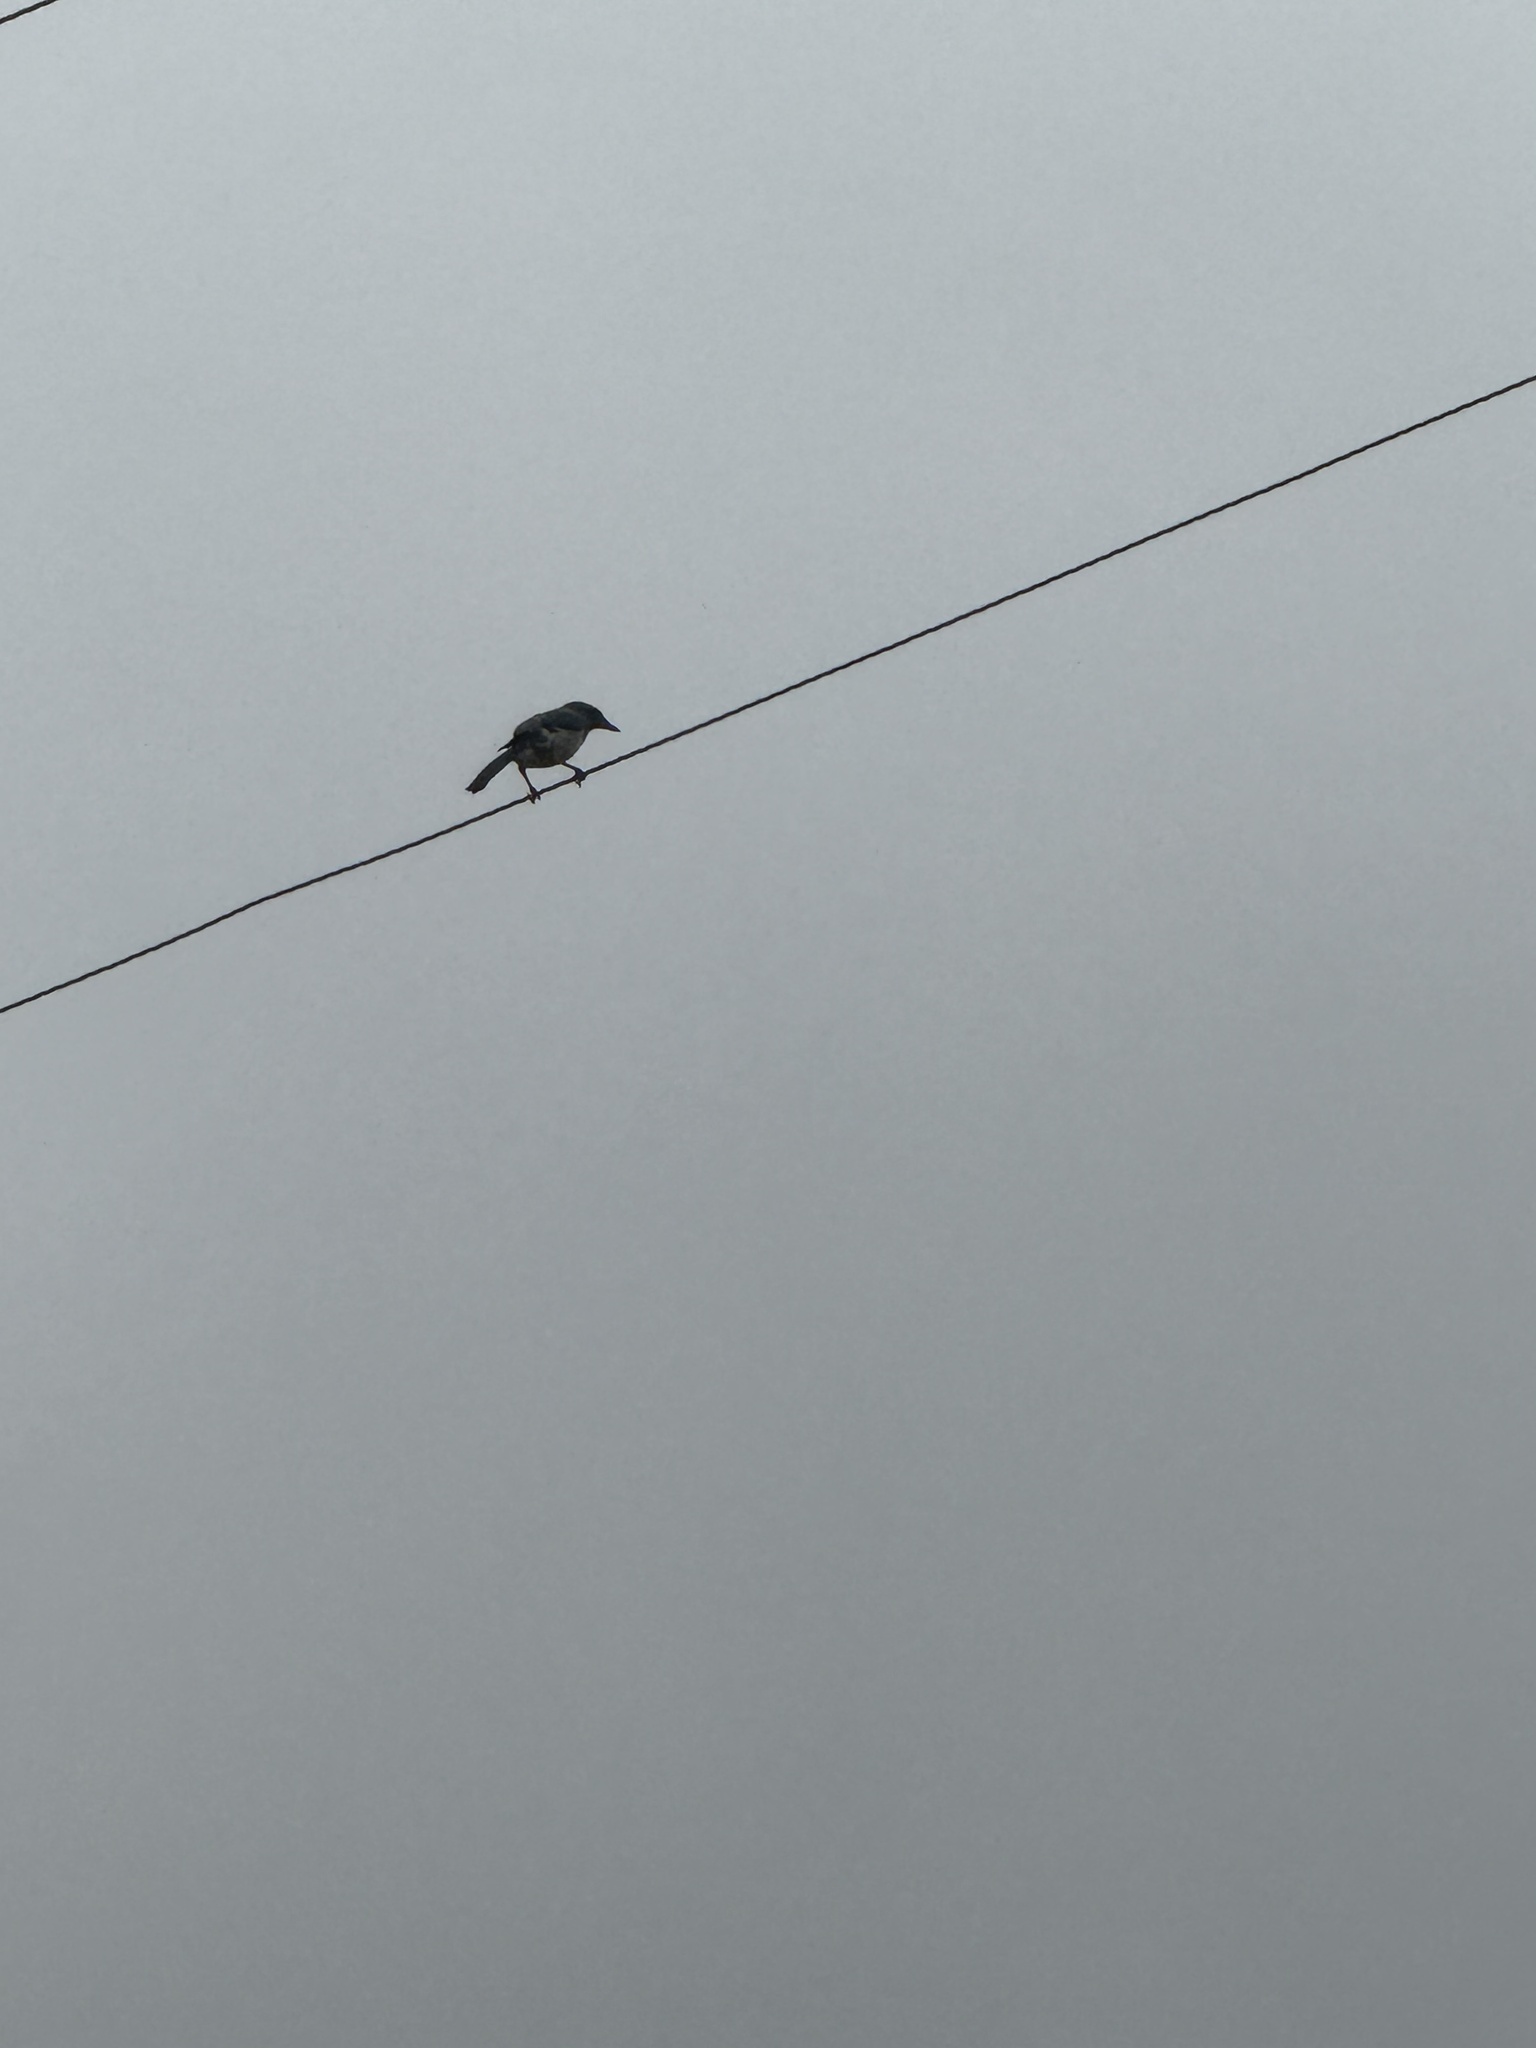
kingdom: Animalia
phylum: Chordata
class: Aves
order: Passeriformes
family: Corvidae
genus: Aphelocoma
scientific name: Aphelocoma californica
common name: California scrub-jay
